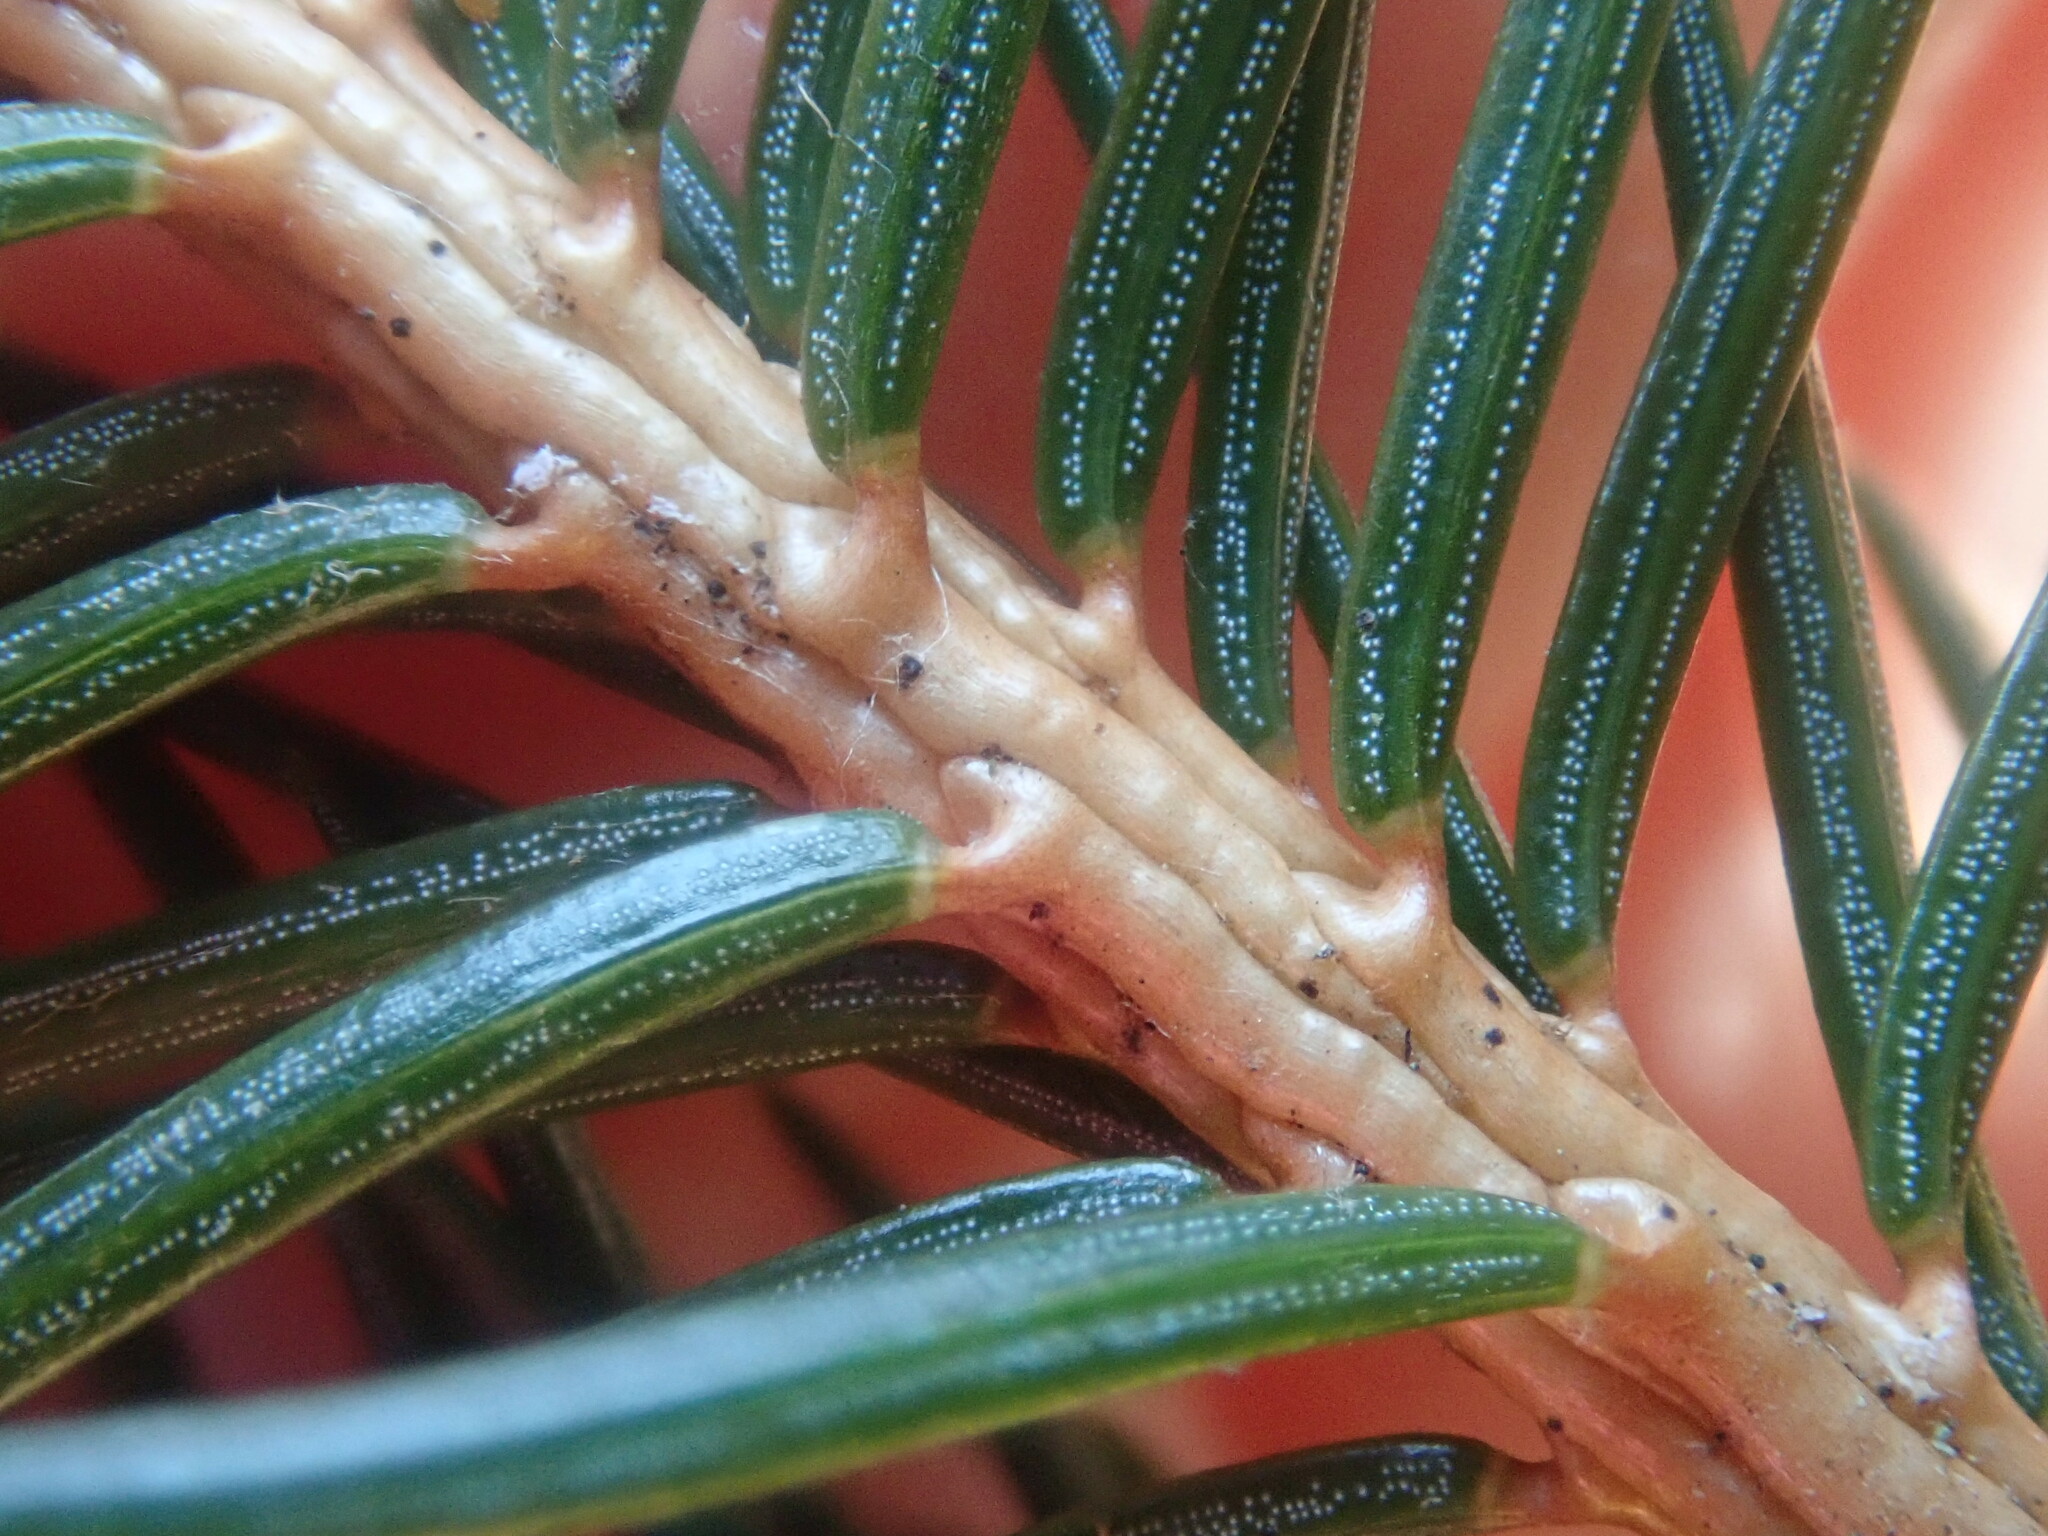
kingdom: Plantae
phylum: Tracheophyta
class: Pinopsida
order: Pinales
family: Pinaceae
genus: Picea
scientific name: Picea abies
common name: Norway spruce
